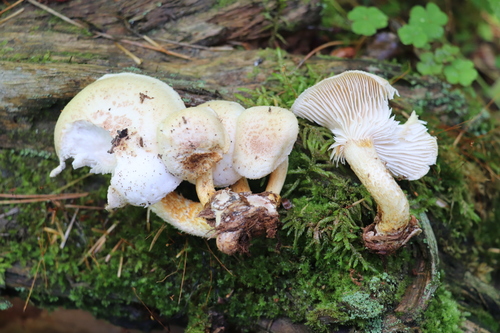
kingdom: Fungi
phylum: Basidiomycota
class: Agaricomycetes
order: Gloeophyllales
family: Gloeophyllaceae
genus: Neolentinus
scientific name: Neolentinus lepideus
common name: Scaly sawgill
